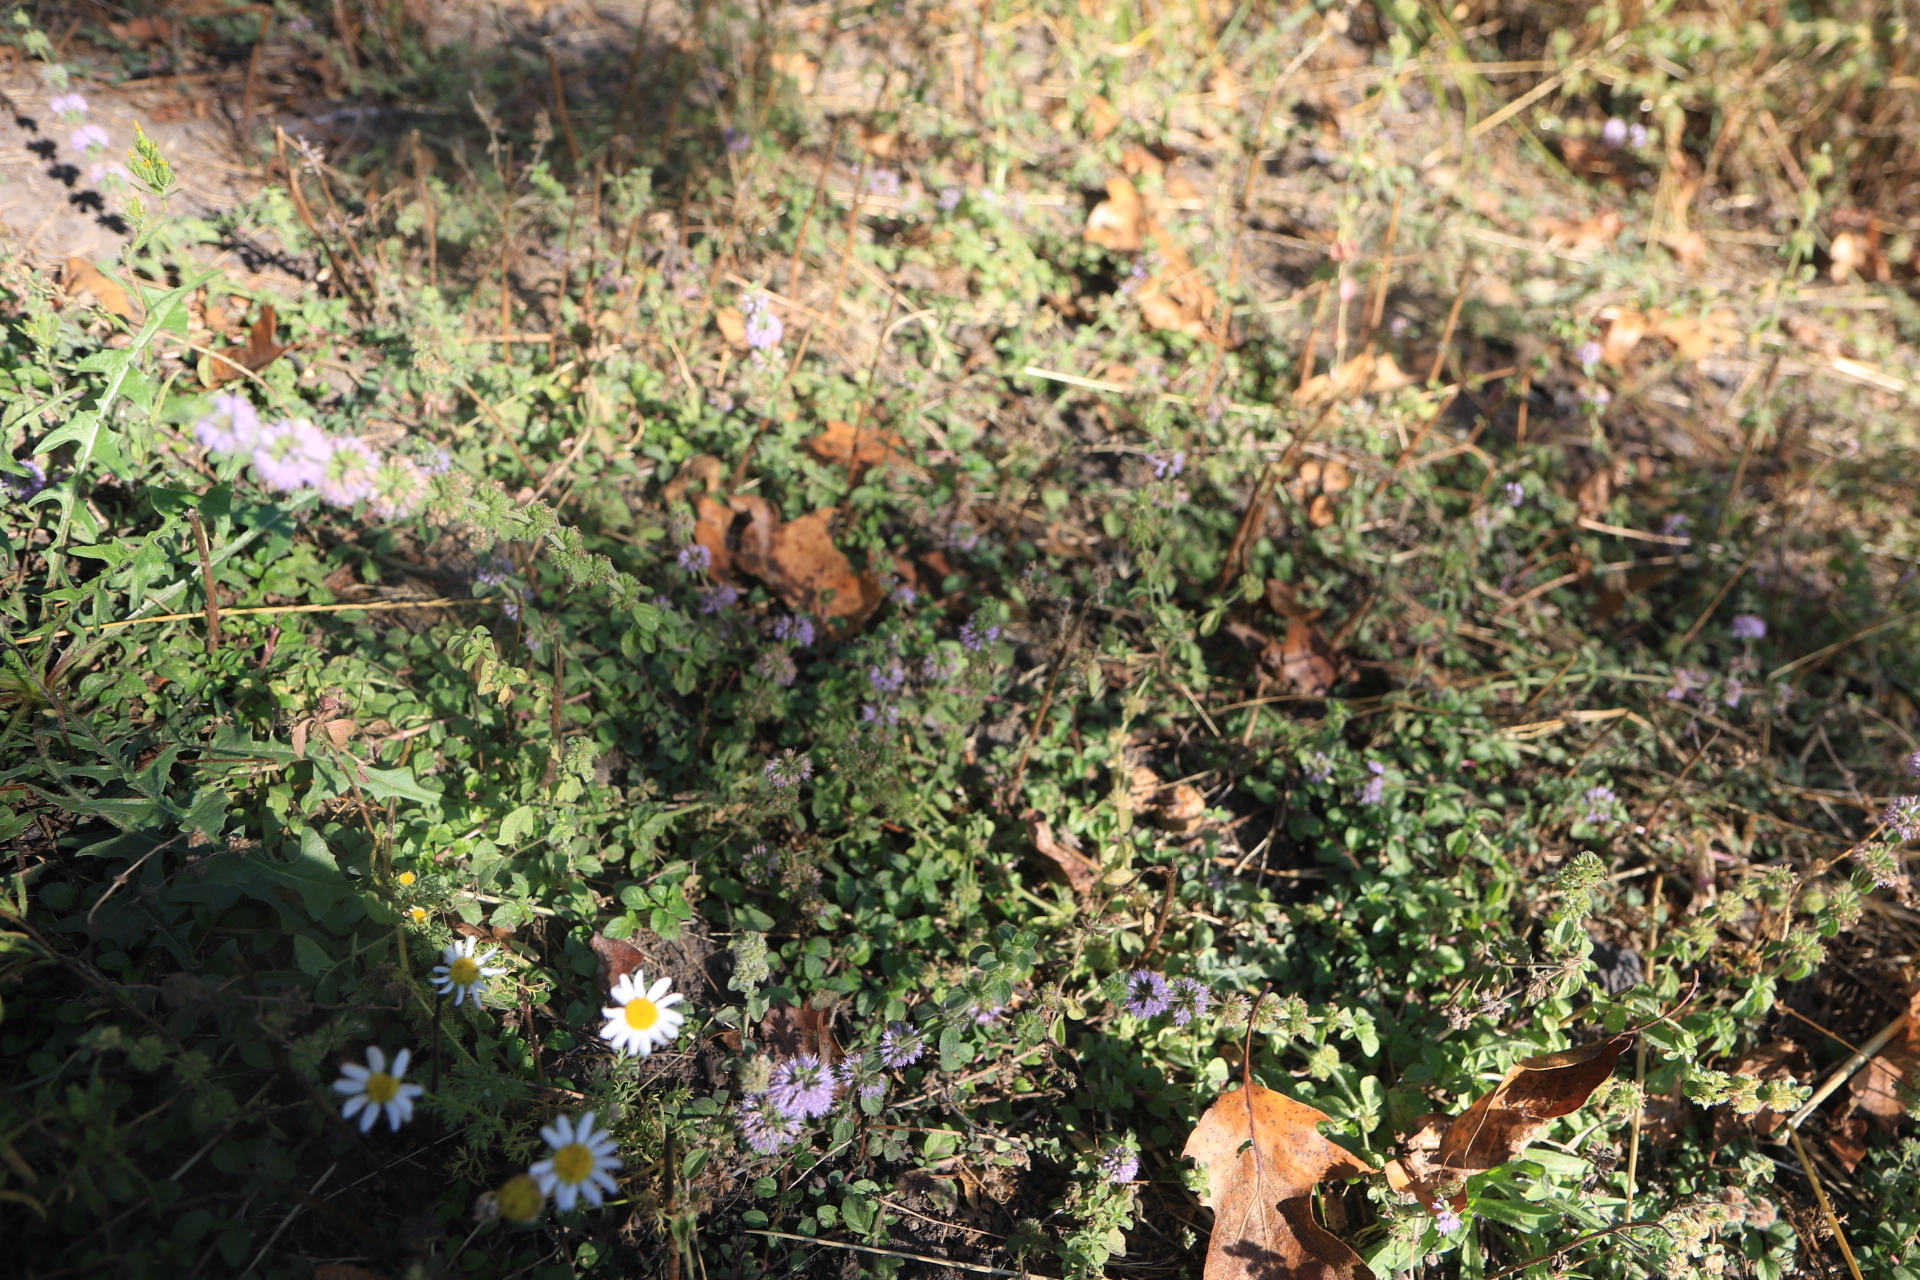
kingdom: Plantae
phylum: Tracheophyta
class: Magnoliopsida
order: Lamiales
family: Lamiaceae
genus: Mentha
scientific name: Mentha pulegium
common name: Pennyroyal
